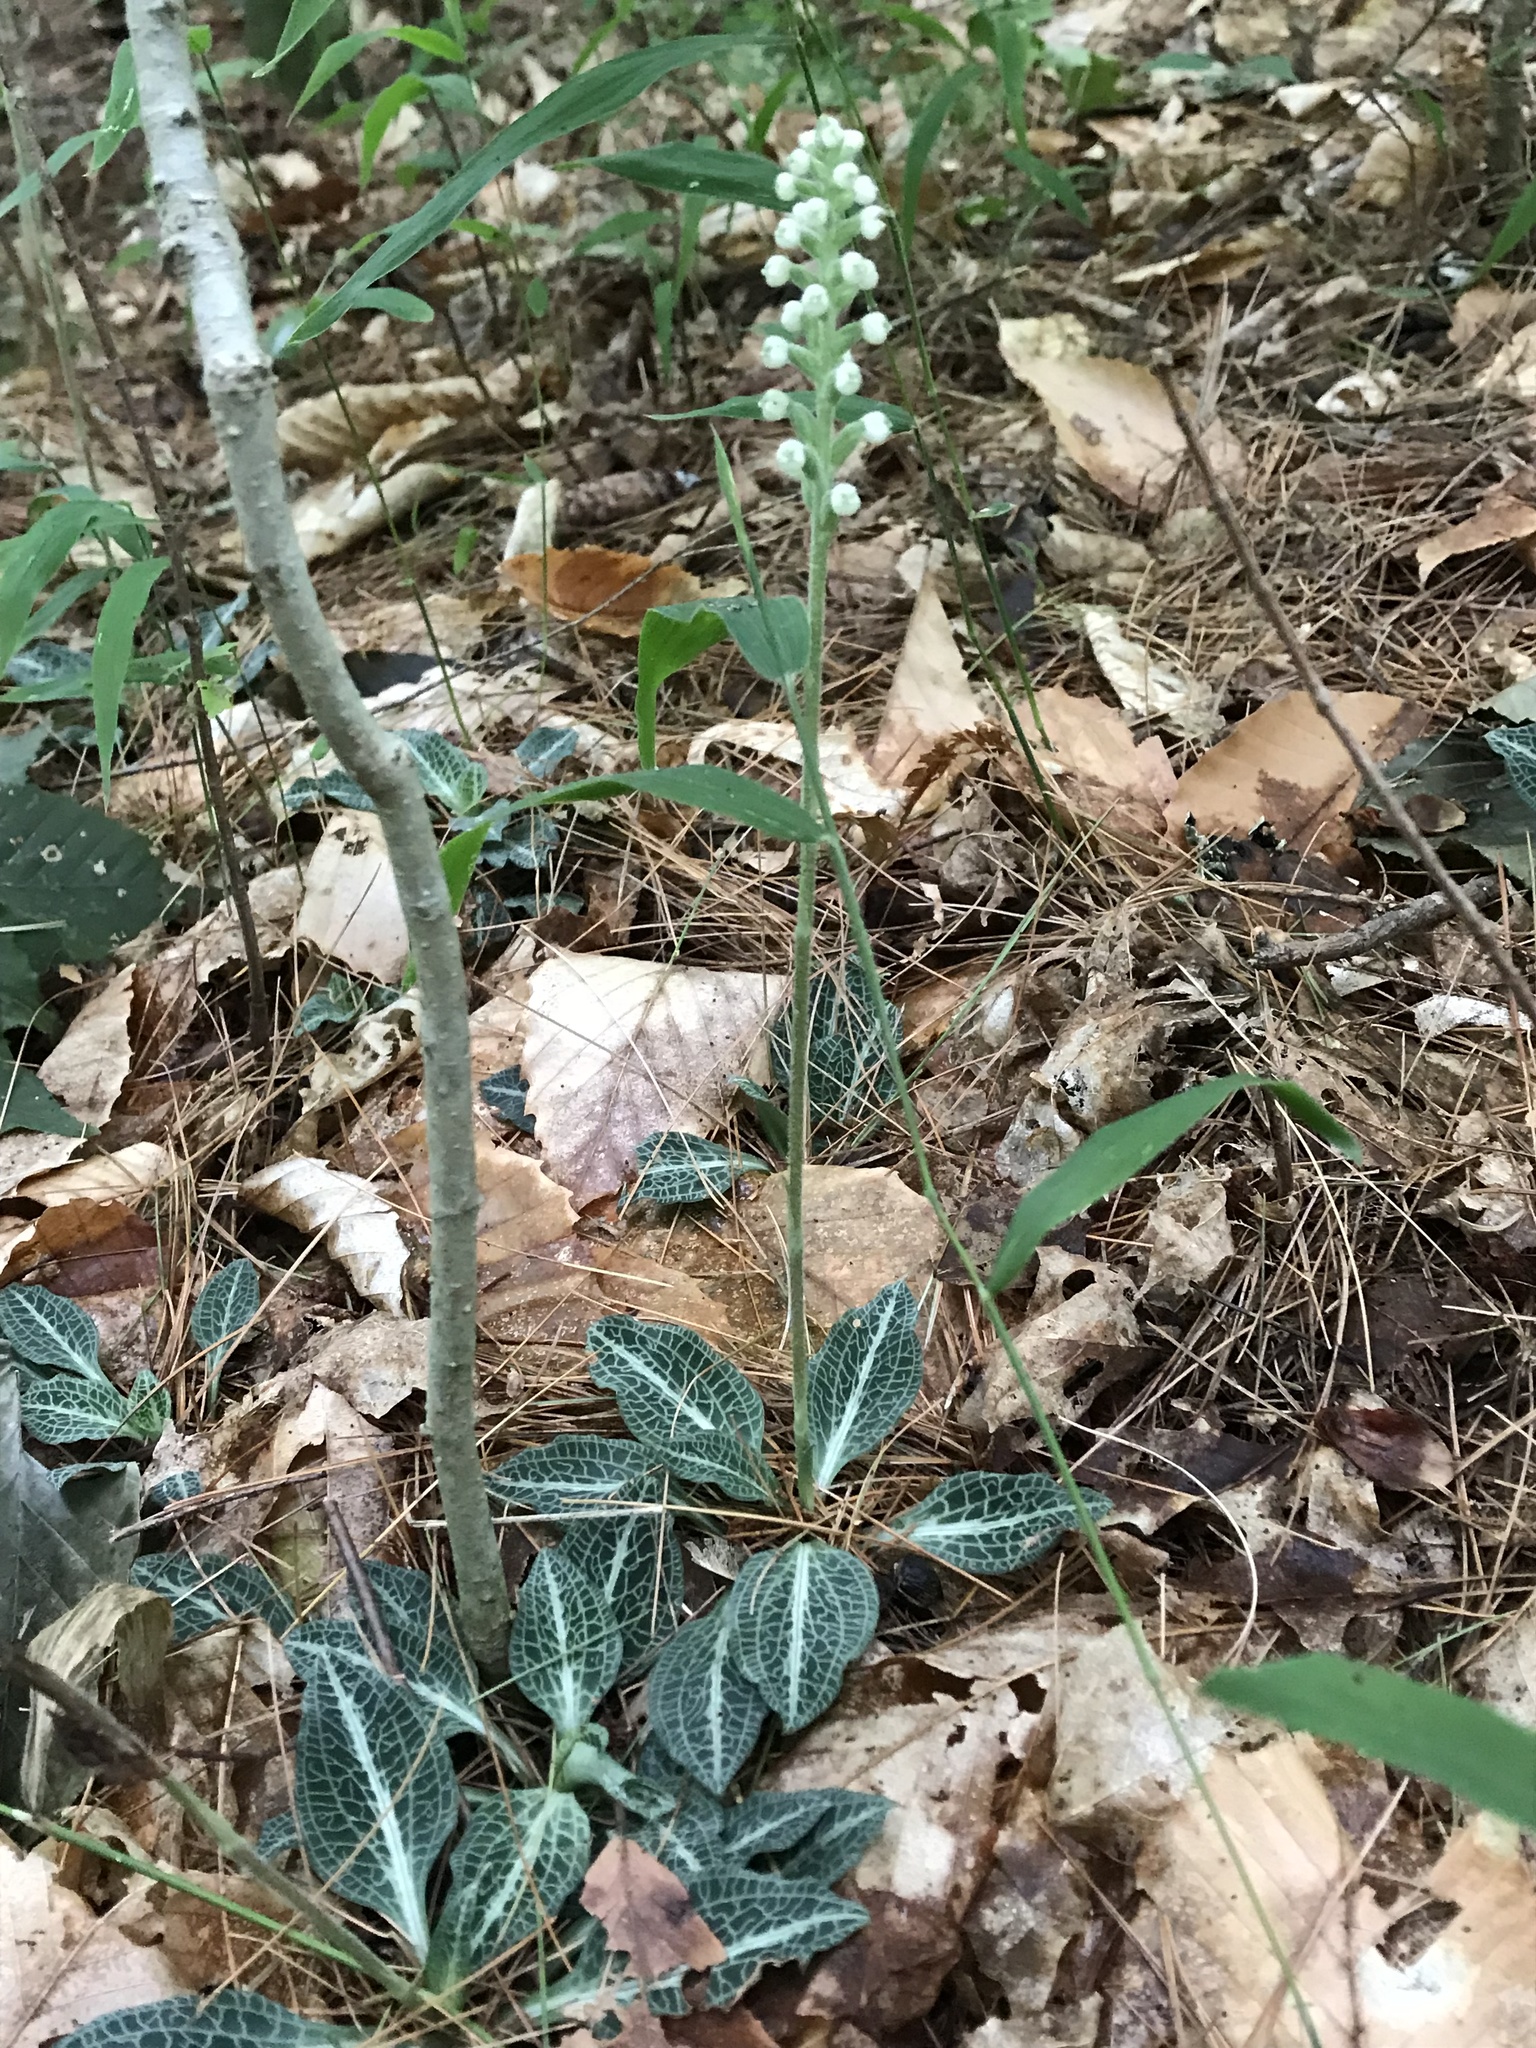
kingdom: Plantae
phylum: Tracheophyta
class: Liliopsida
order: Asparagales
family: Orchidaceae
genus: Goodyera
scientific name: Goodyera pubescens
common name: Downy rattlesnake-plantain
